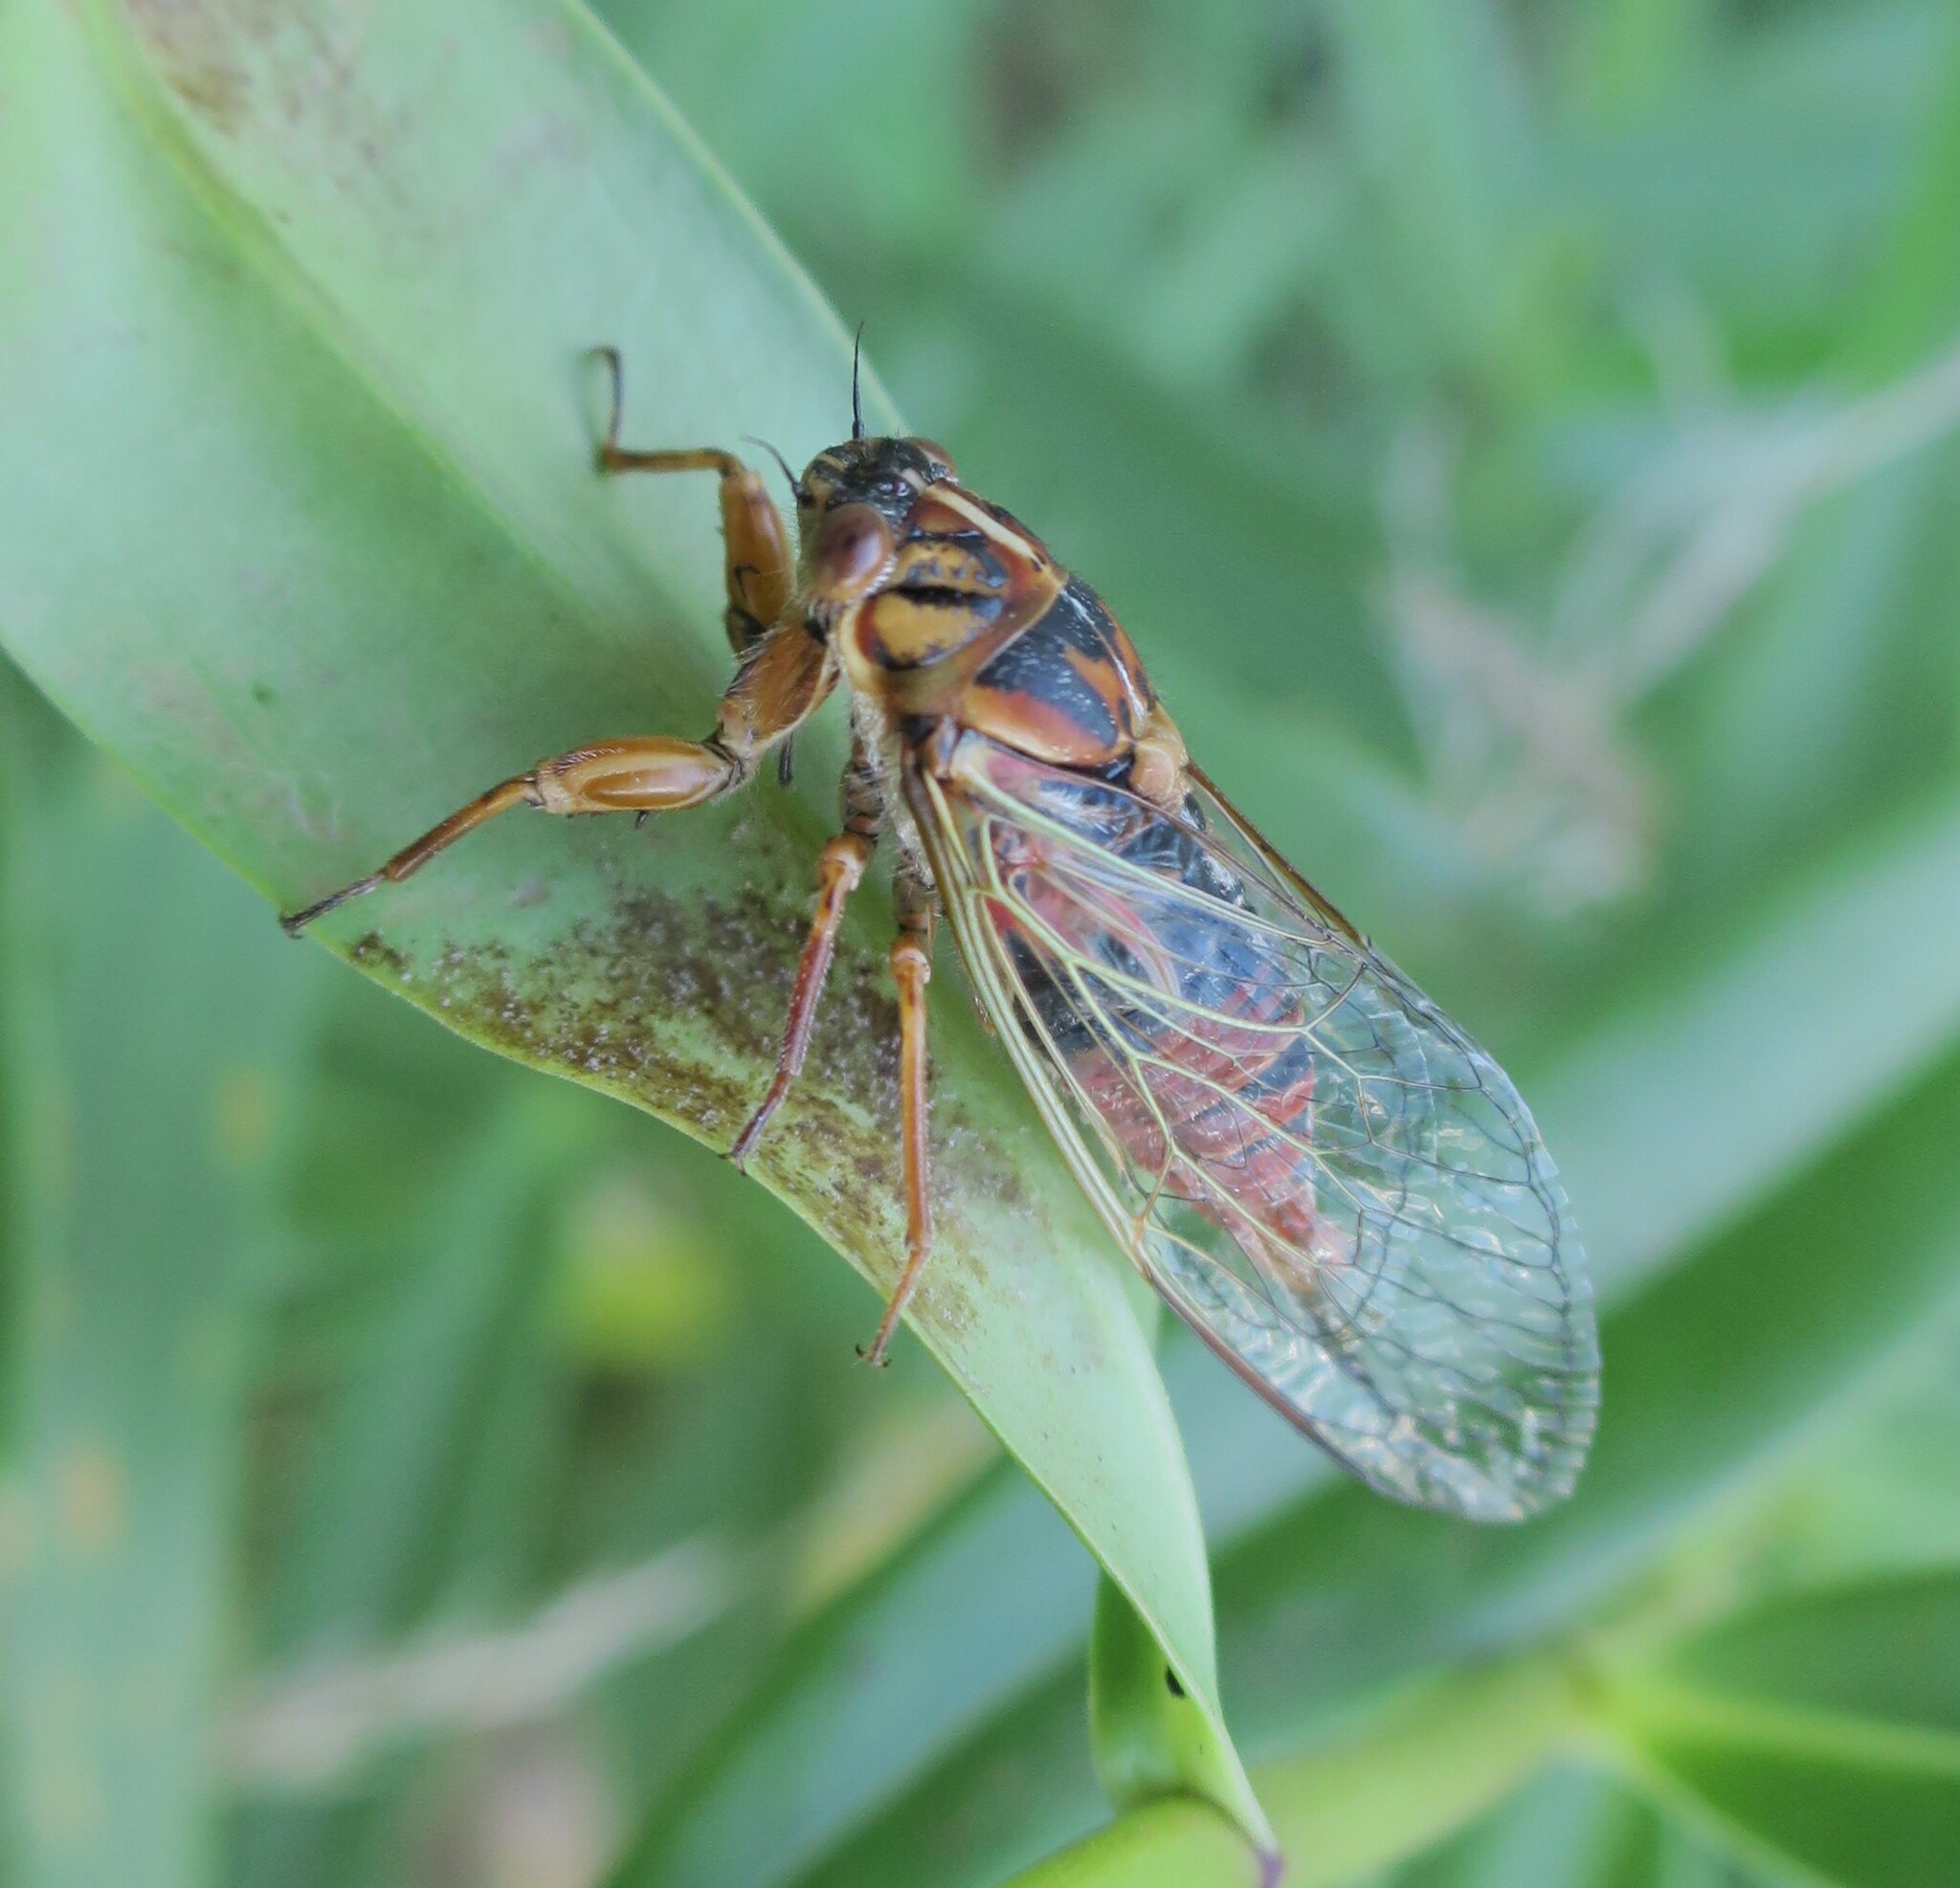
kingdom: Animalia
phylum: Arthropoda
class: Insecta
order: Hemiptera
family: Cicadidae
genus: Rhodopsalta
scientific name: Rhodopsalta cruentata
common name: Blood redtail cicada
